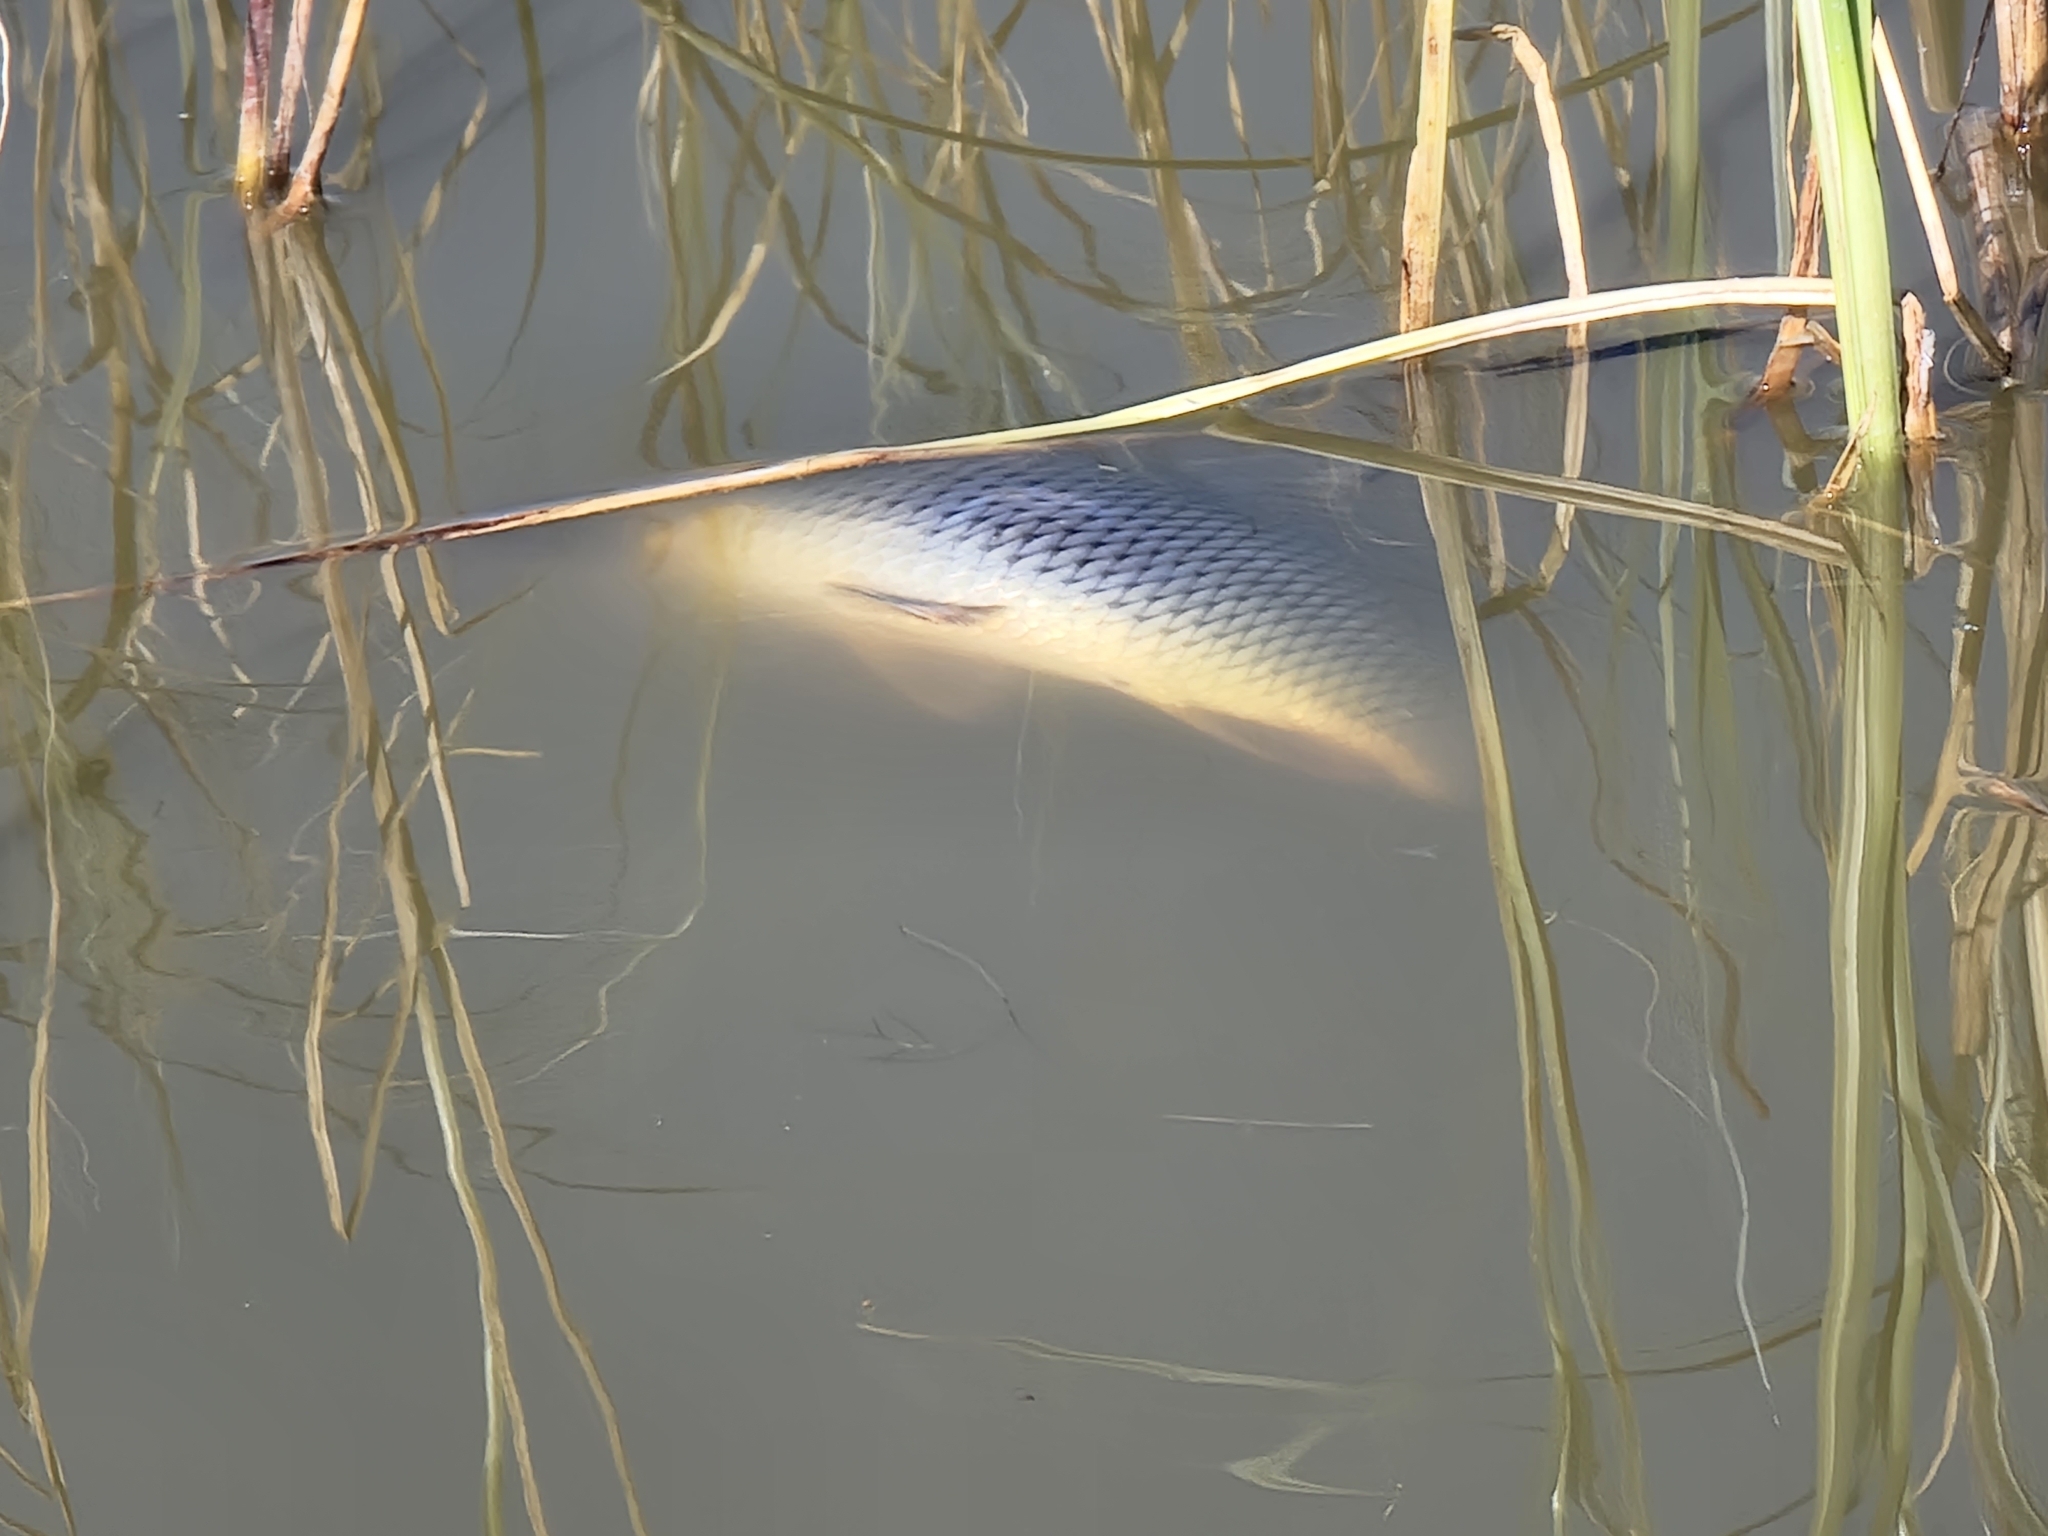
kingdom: Animalia
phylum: Chordata
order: Cypriniformes
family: Cyprinidae
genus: Cyprinus
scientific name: Cyprinus carpio
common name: Common carp
